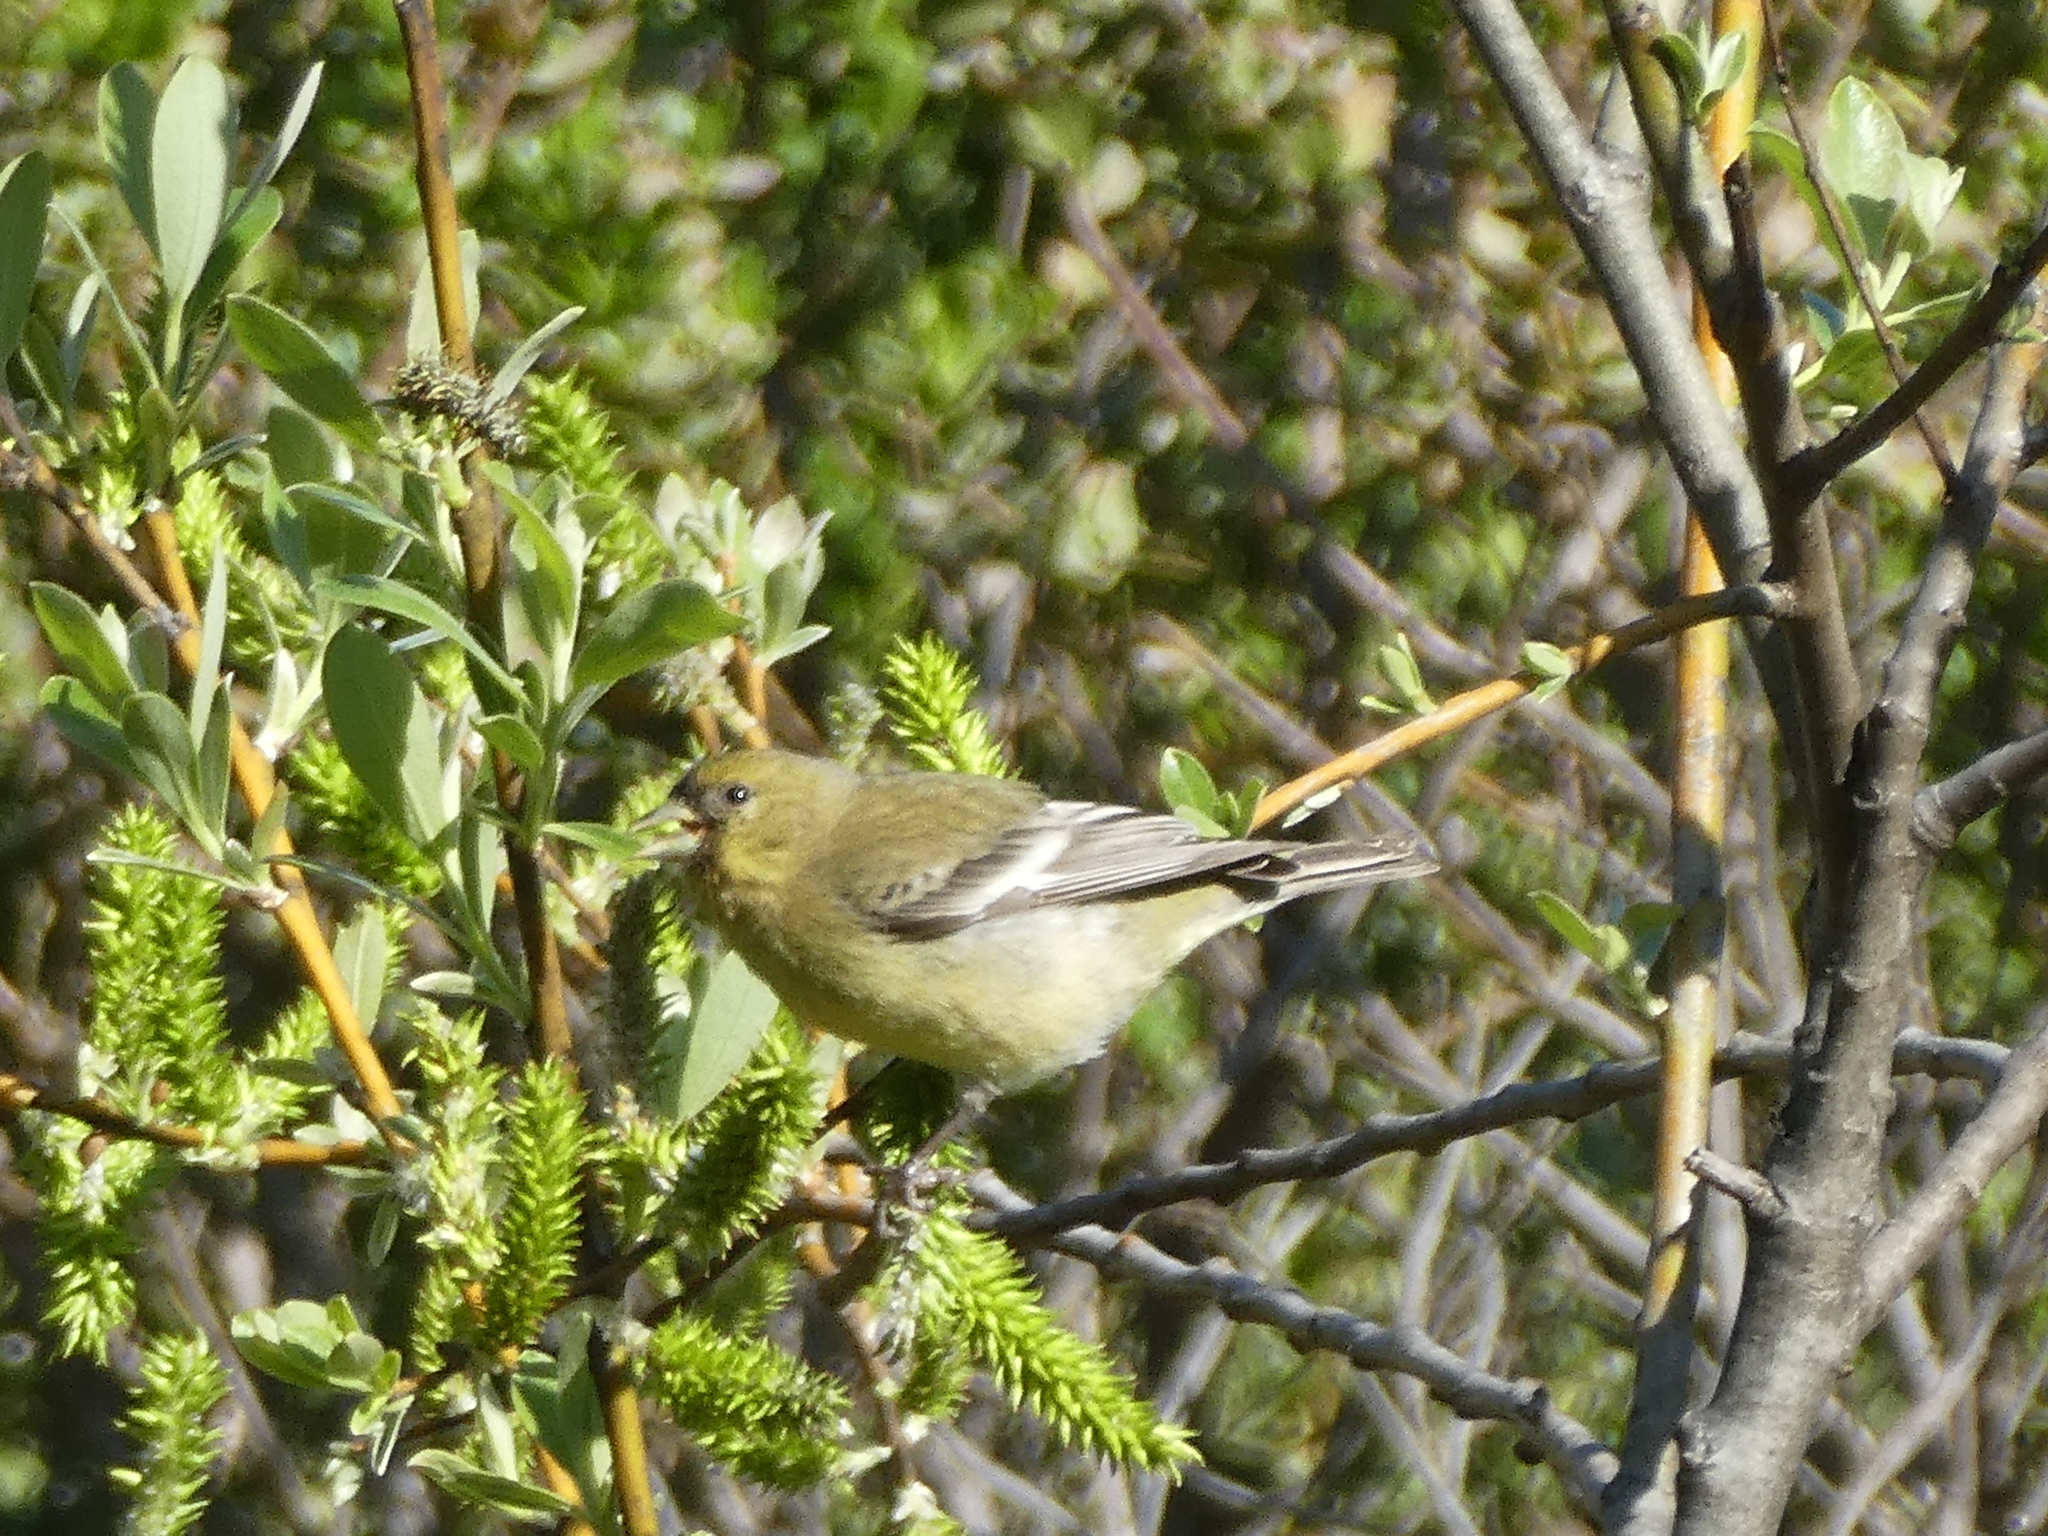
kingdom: Animalia
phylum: Chordata
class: Aves
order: Passeriformes
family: Fringillidae
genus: Spinus
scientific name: Spinus psaltria
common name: Lesser goldfinch
